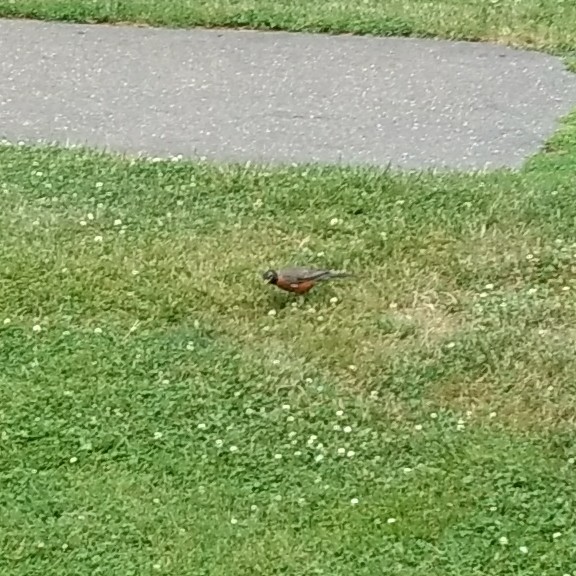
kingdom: Animalia
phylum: Chordata
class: Aves
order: Passeriformes
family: Turdidae
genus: Turdus
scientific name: Turdus migratorius
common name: American robin
